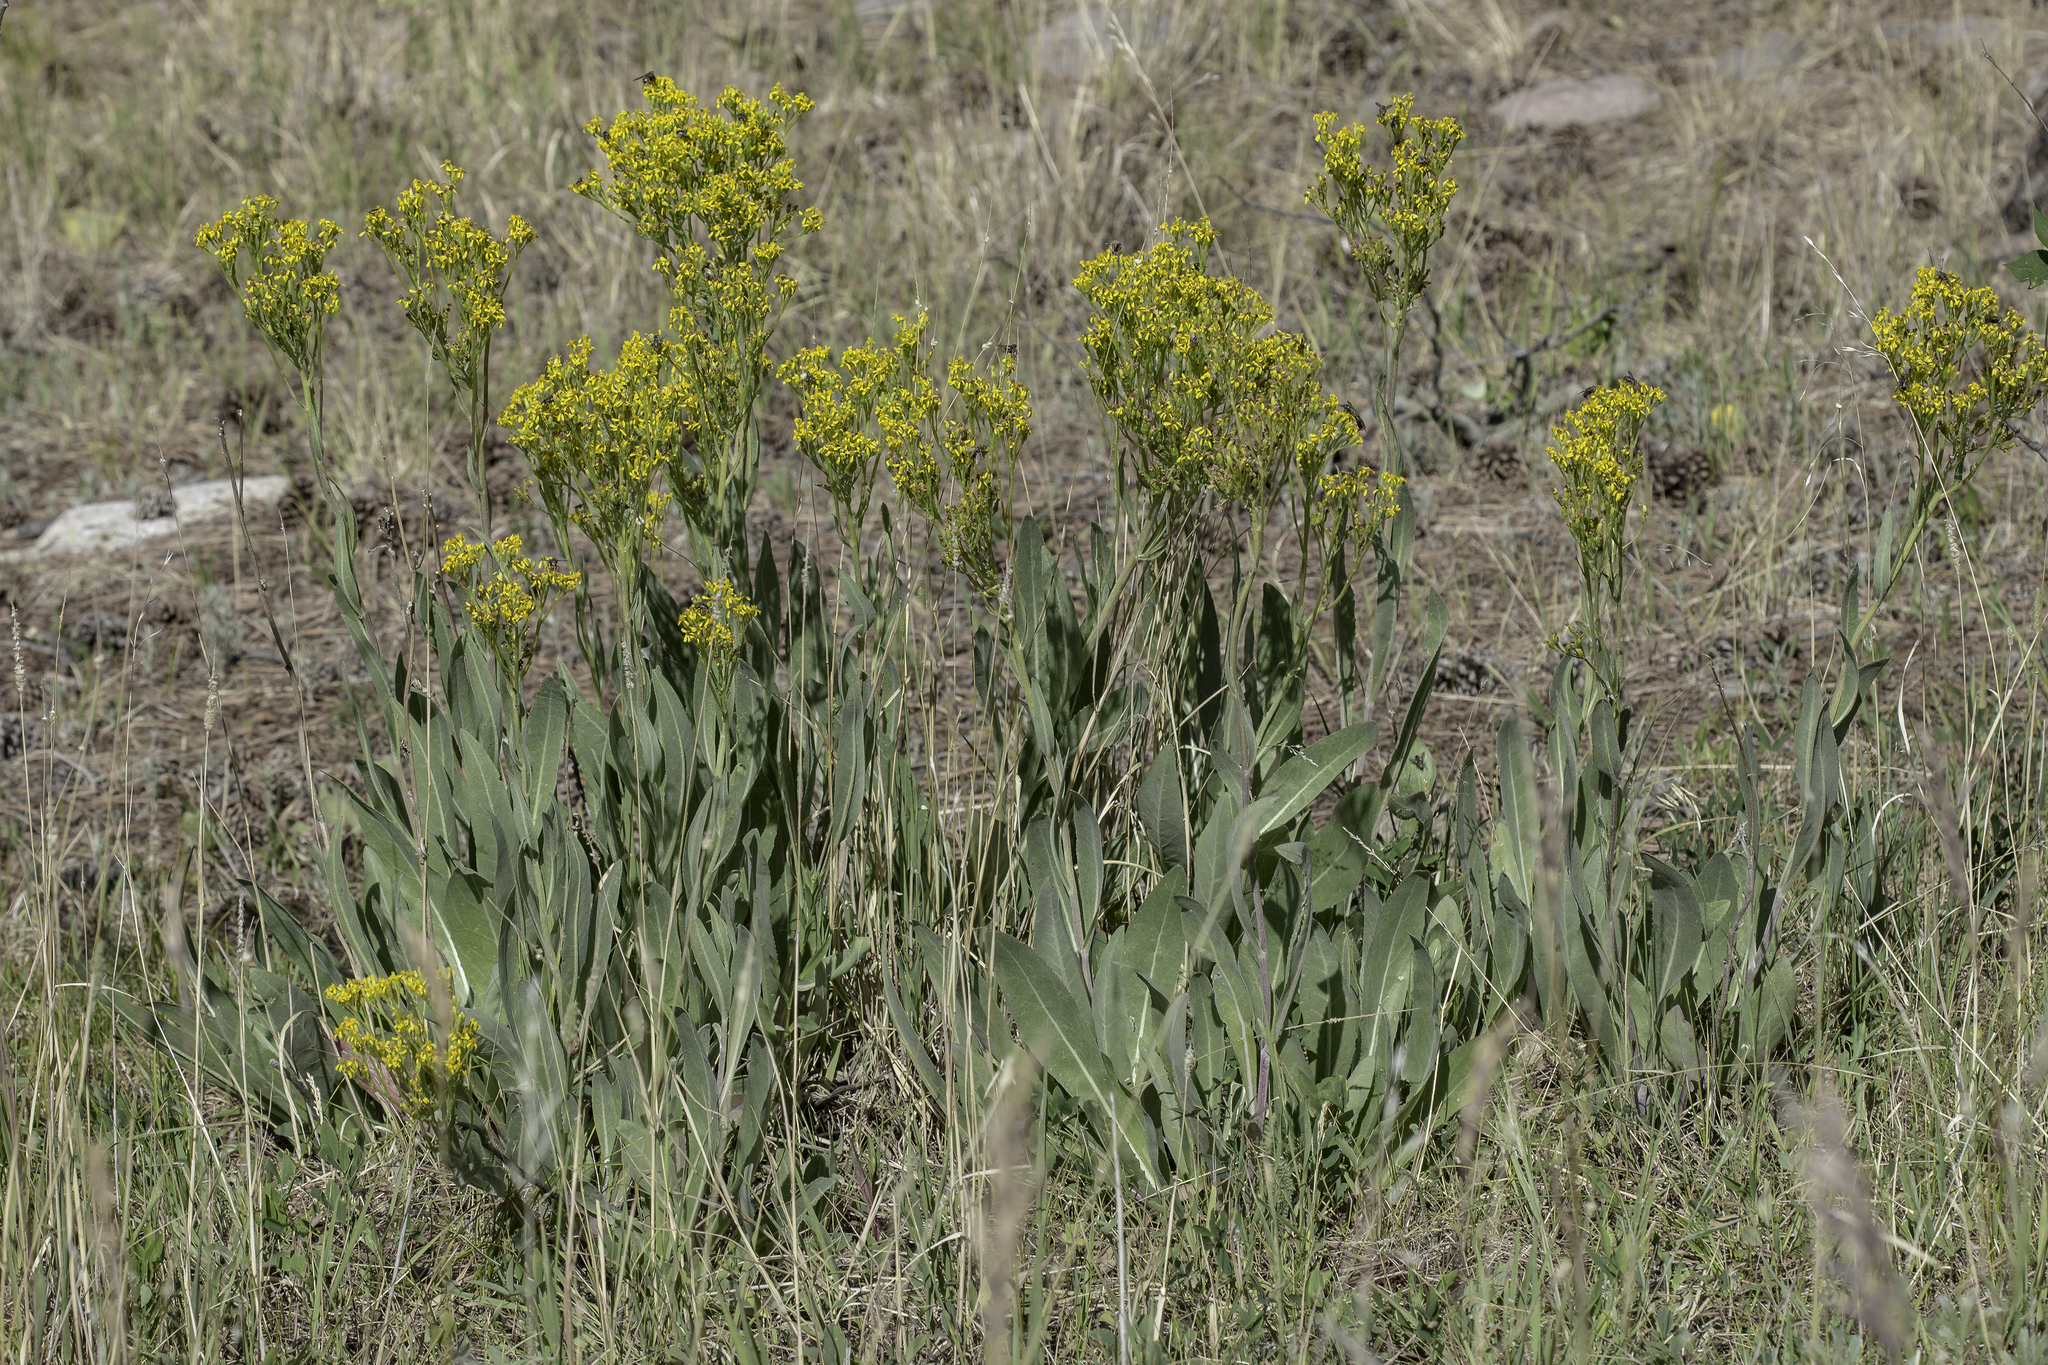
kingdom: Plantae
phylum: Tracheophyta
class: Magnoliopsida
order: Asterales
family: Asteraceae
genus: Senecio
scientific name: Senecio atratus
